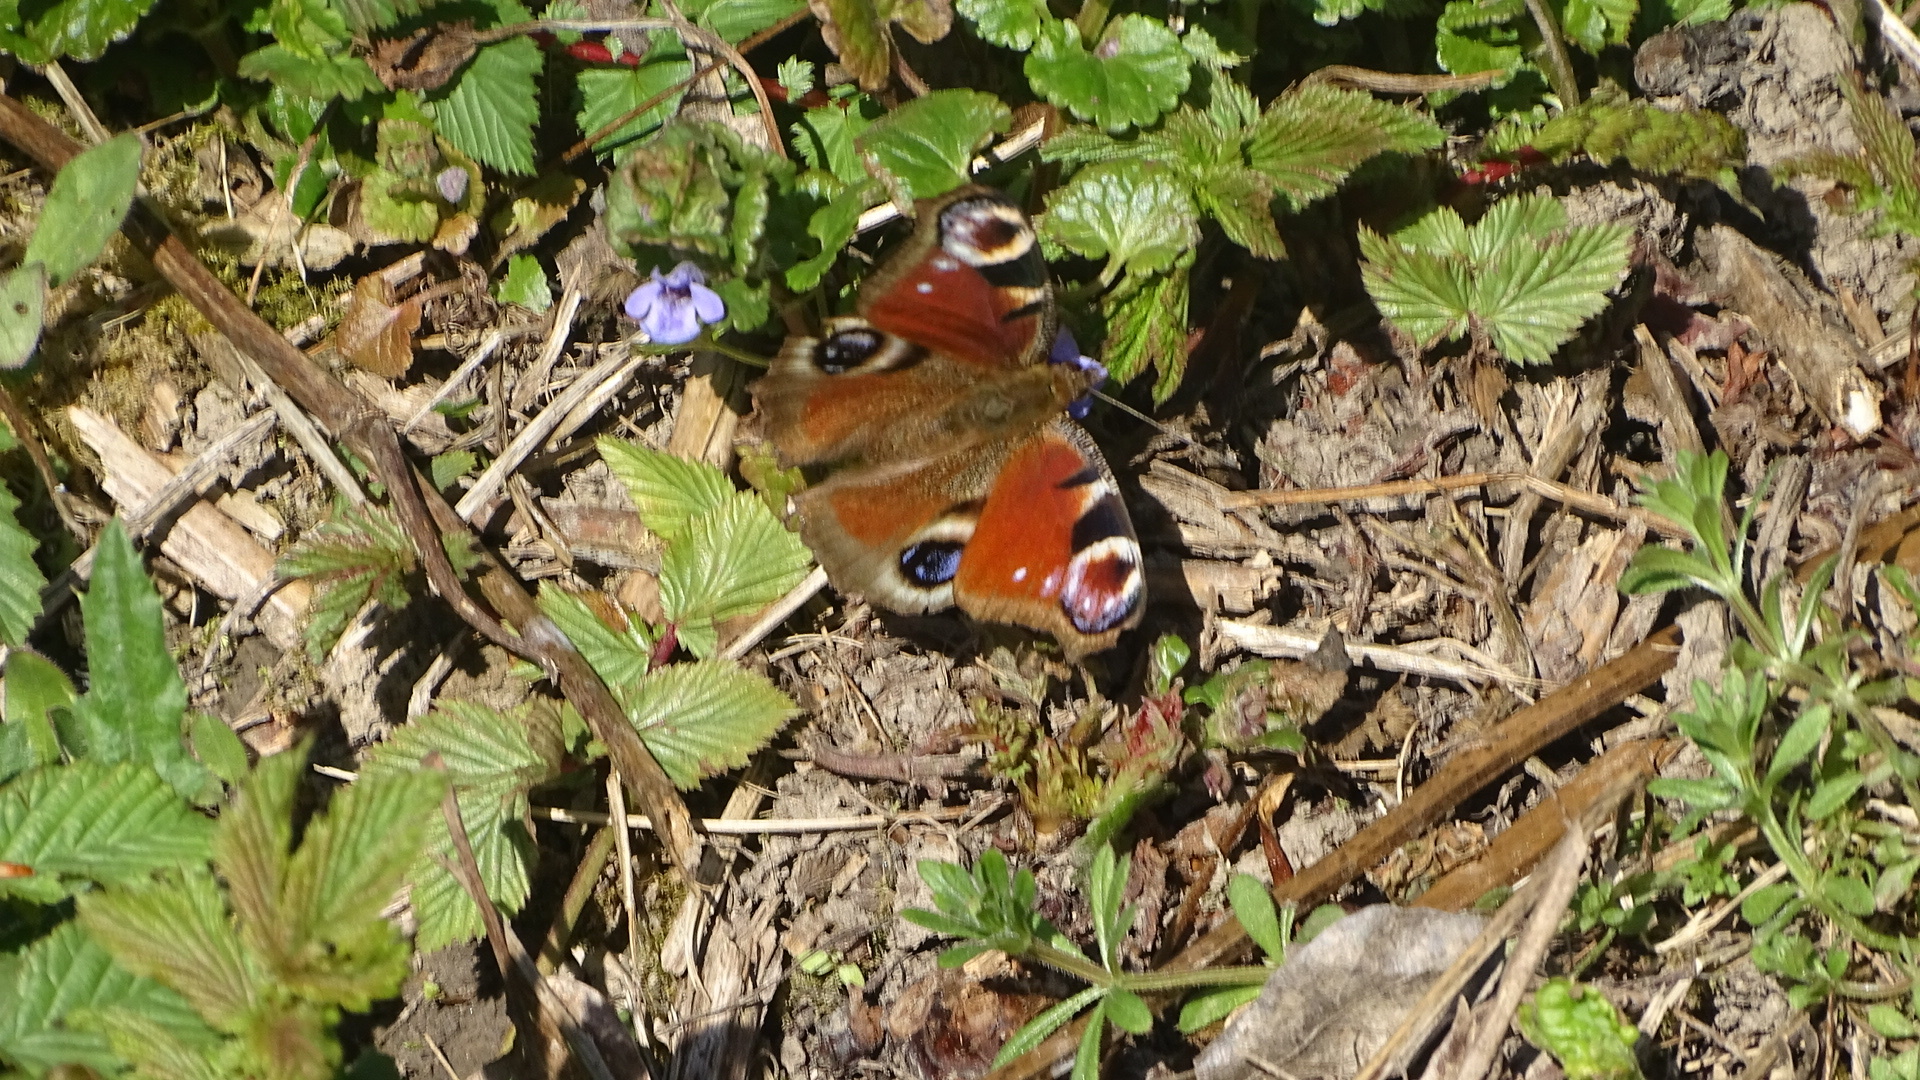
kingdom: Animalia
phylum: Arthropoda
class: Insecta
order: Lepidoptera
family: Nymphalidae
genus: Aglais
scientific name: Aglais io
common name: Peacock
